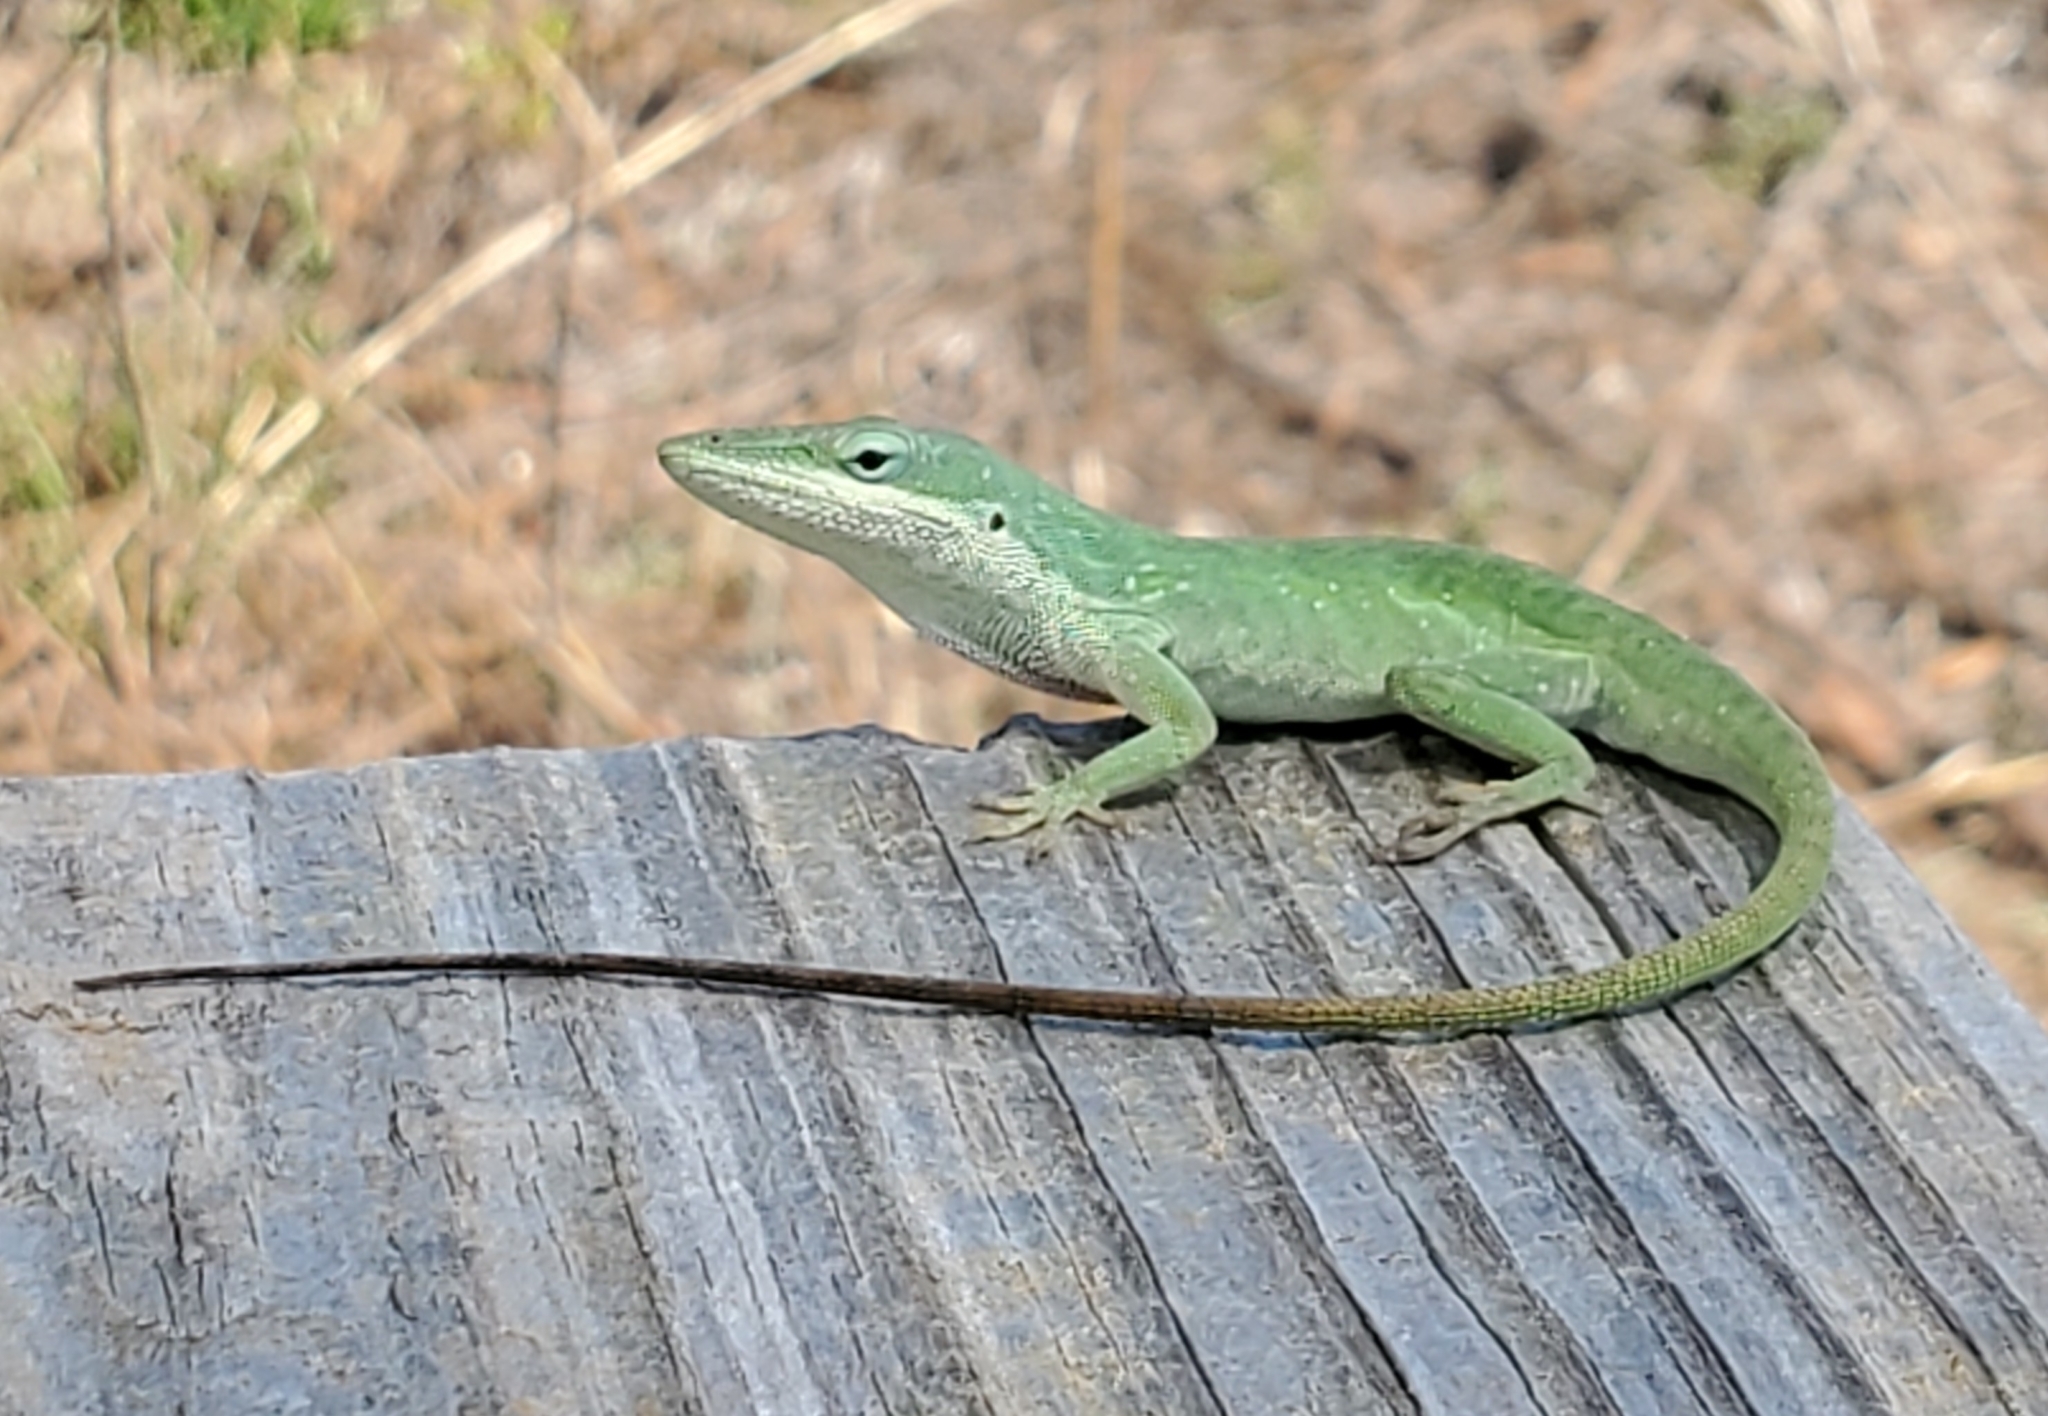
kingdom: Animalia
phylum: Chordata
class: Squamata
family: Dactyloidae
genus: Anolis
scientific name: Anolis carolinensis
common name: Green anole
